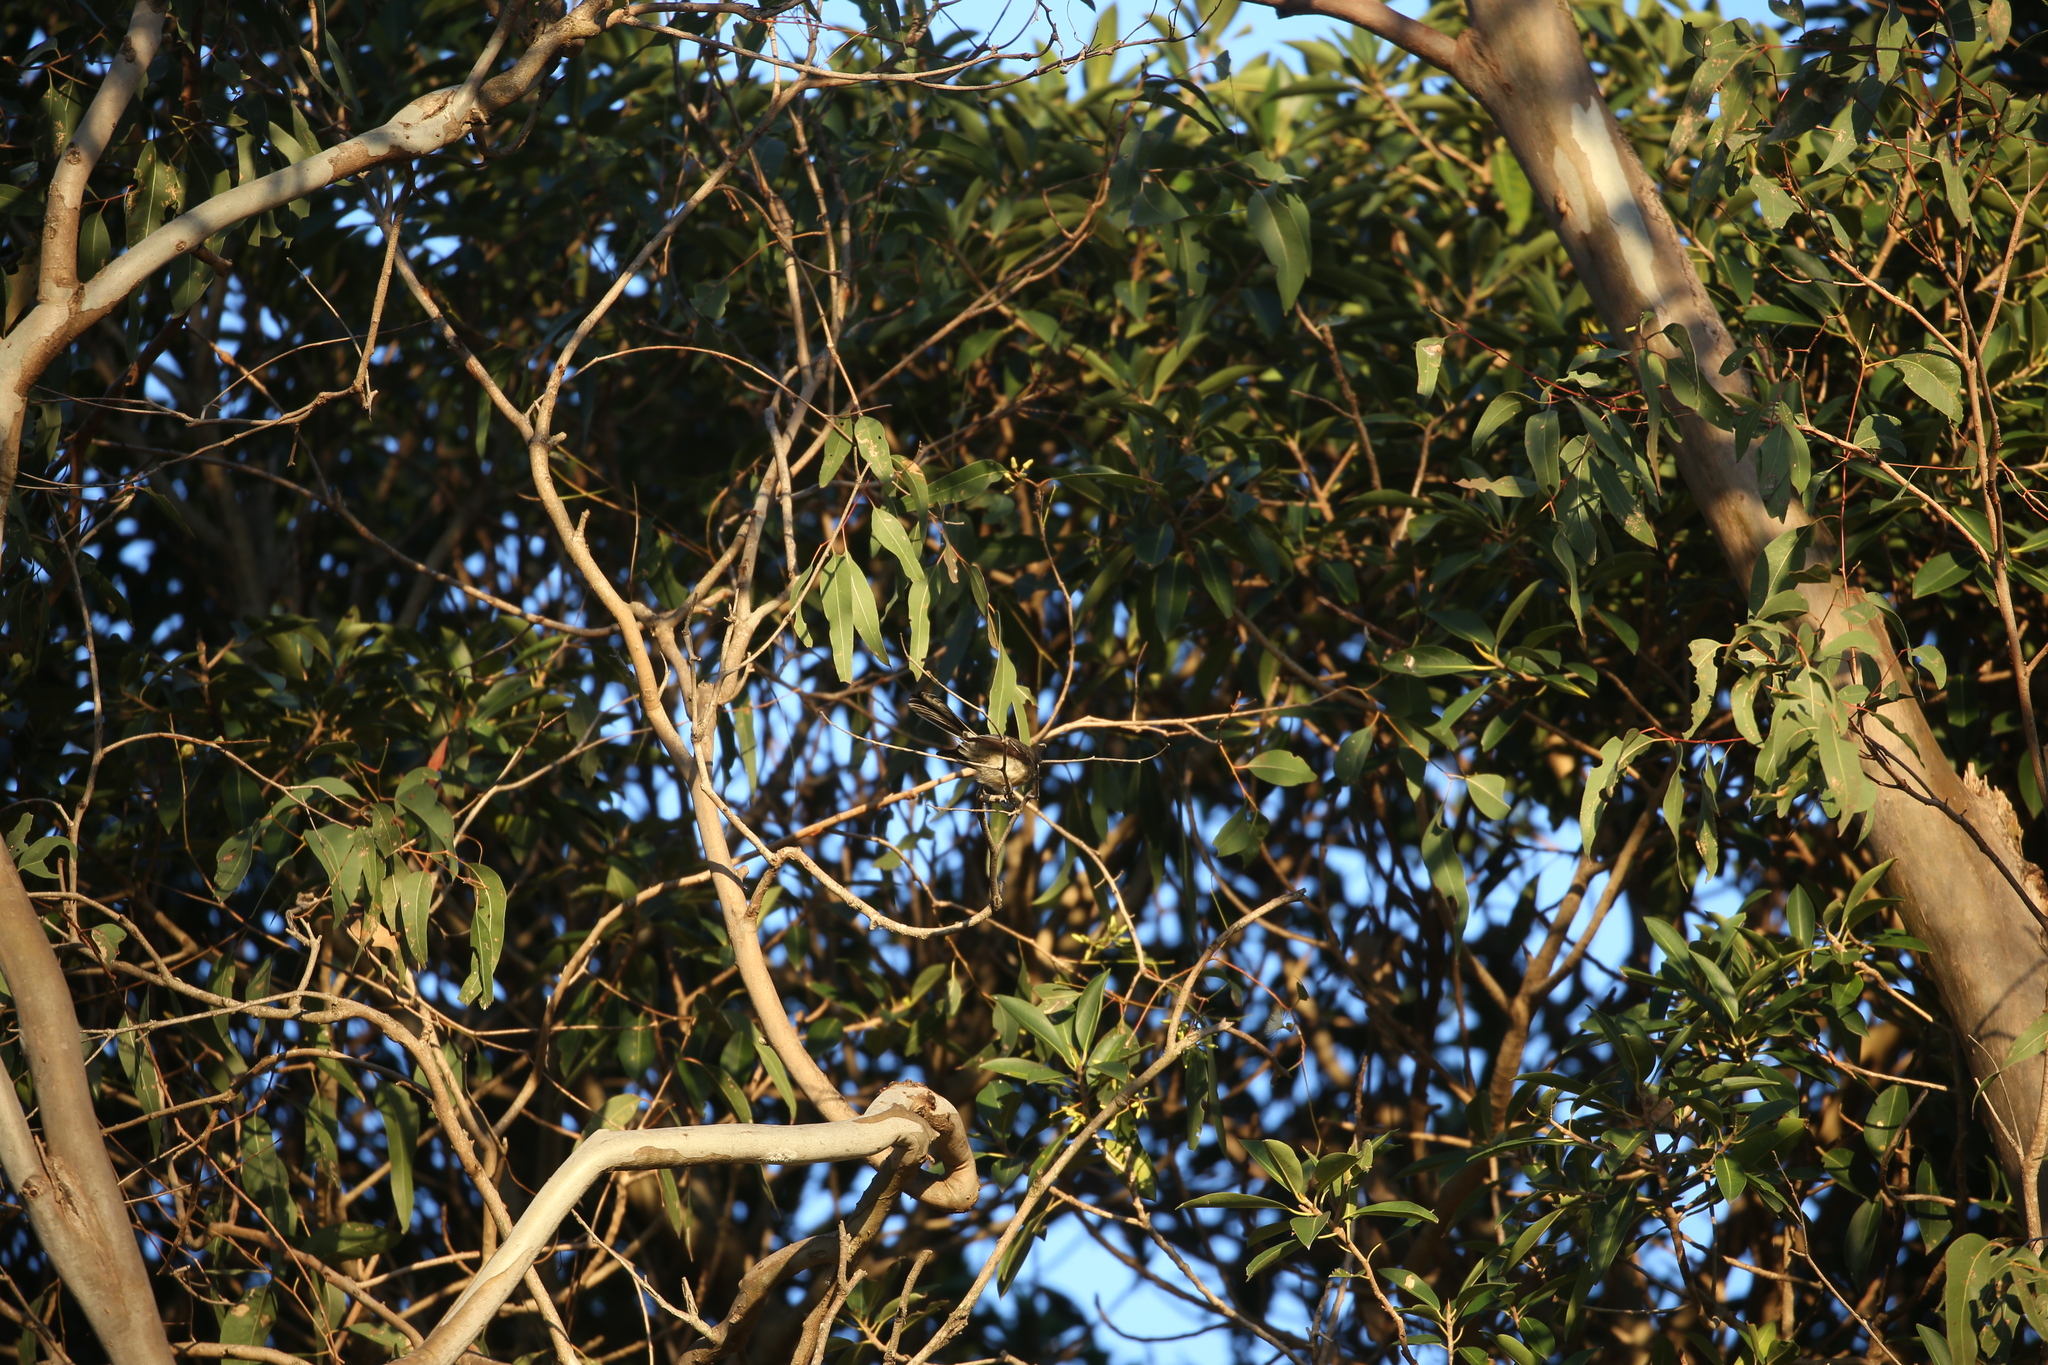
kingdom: Animalia
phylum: Chordata
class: Aves
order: Passeriformes
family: Rhipiduridae
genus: Rhipidura
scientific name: Rhipidura albiscapa
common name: Grey fantail
